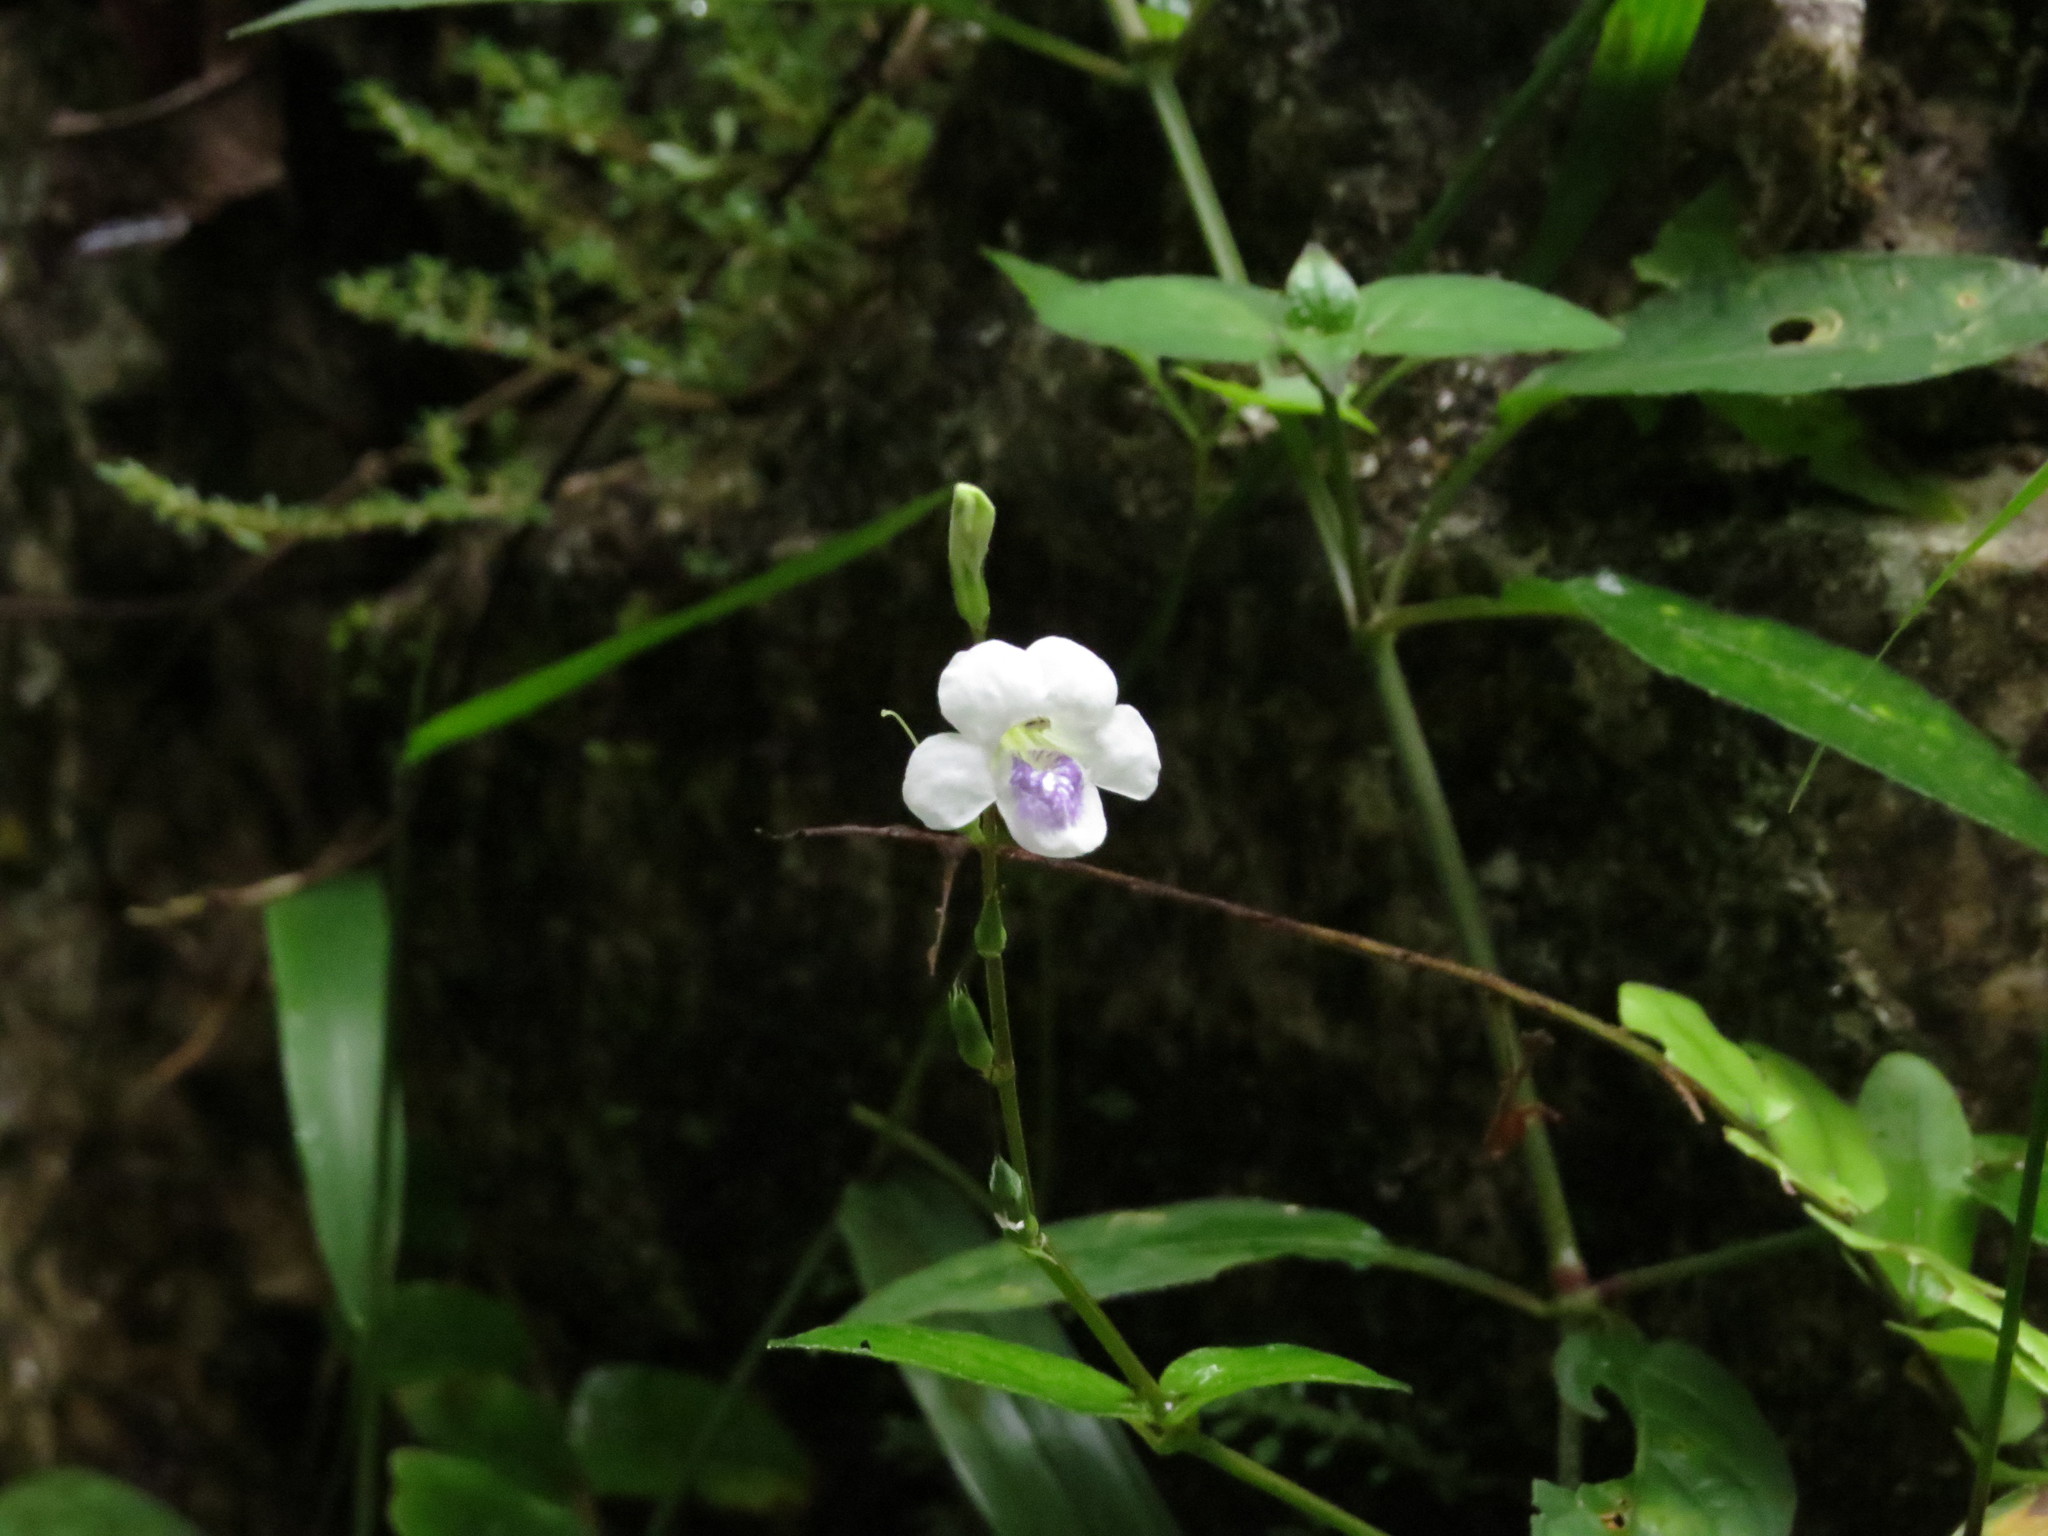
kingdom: Plantae
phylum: Tracheophyta
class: Magnoliopsida
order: Lamiales
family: Acanthaceae
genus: Asystasia
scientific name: Asystasia intrusa
